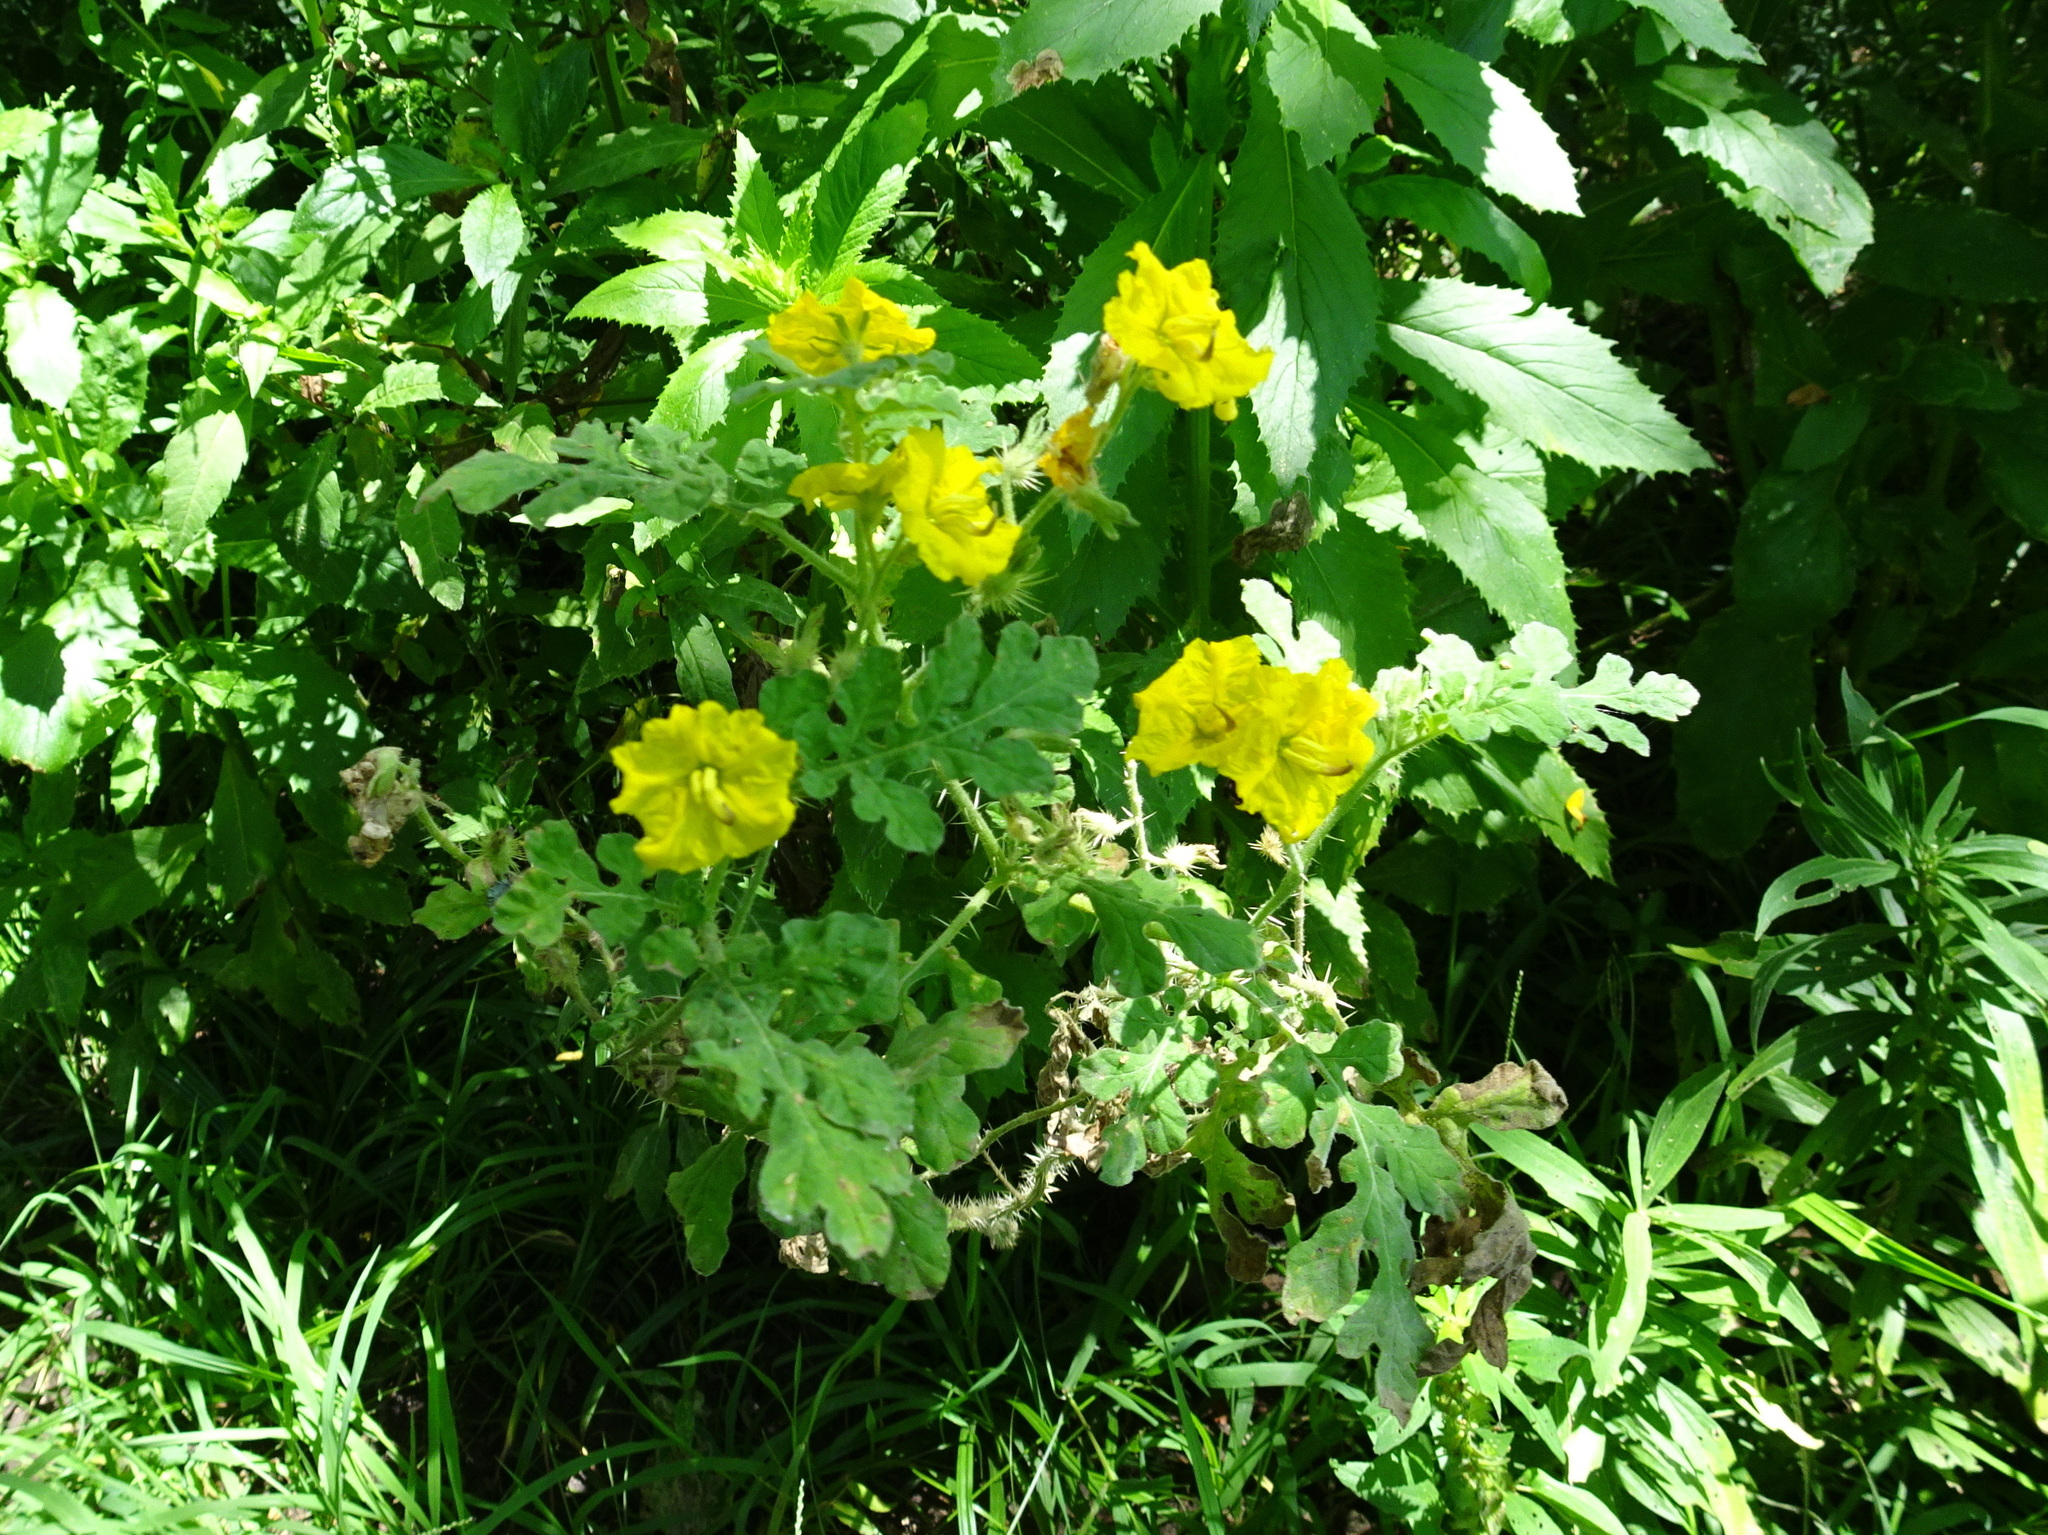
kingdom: Plantae
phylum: Tracheophyta
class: Magnoliopsida
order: Solanales
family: Solanaceae
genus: Solanum
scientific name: Solanum angustifolium
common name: Buffalobur nightshade
